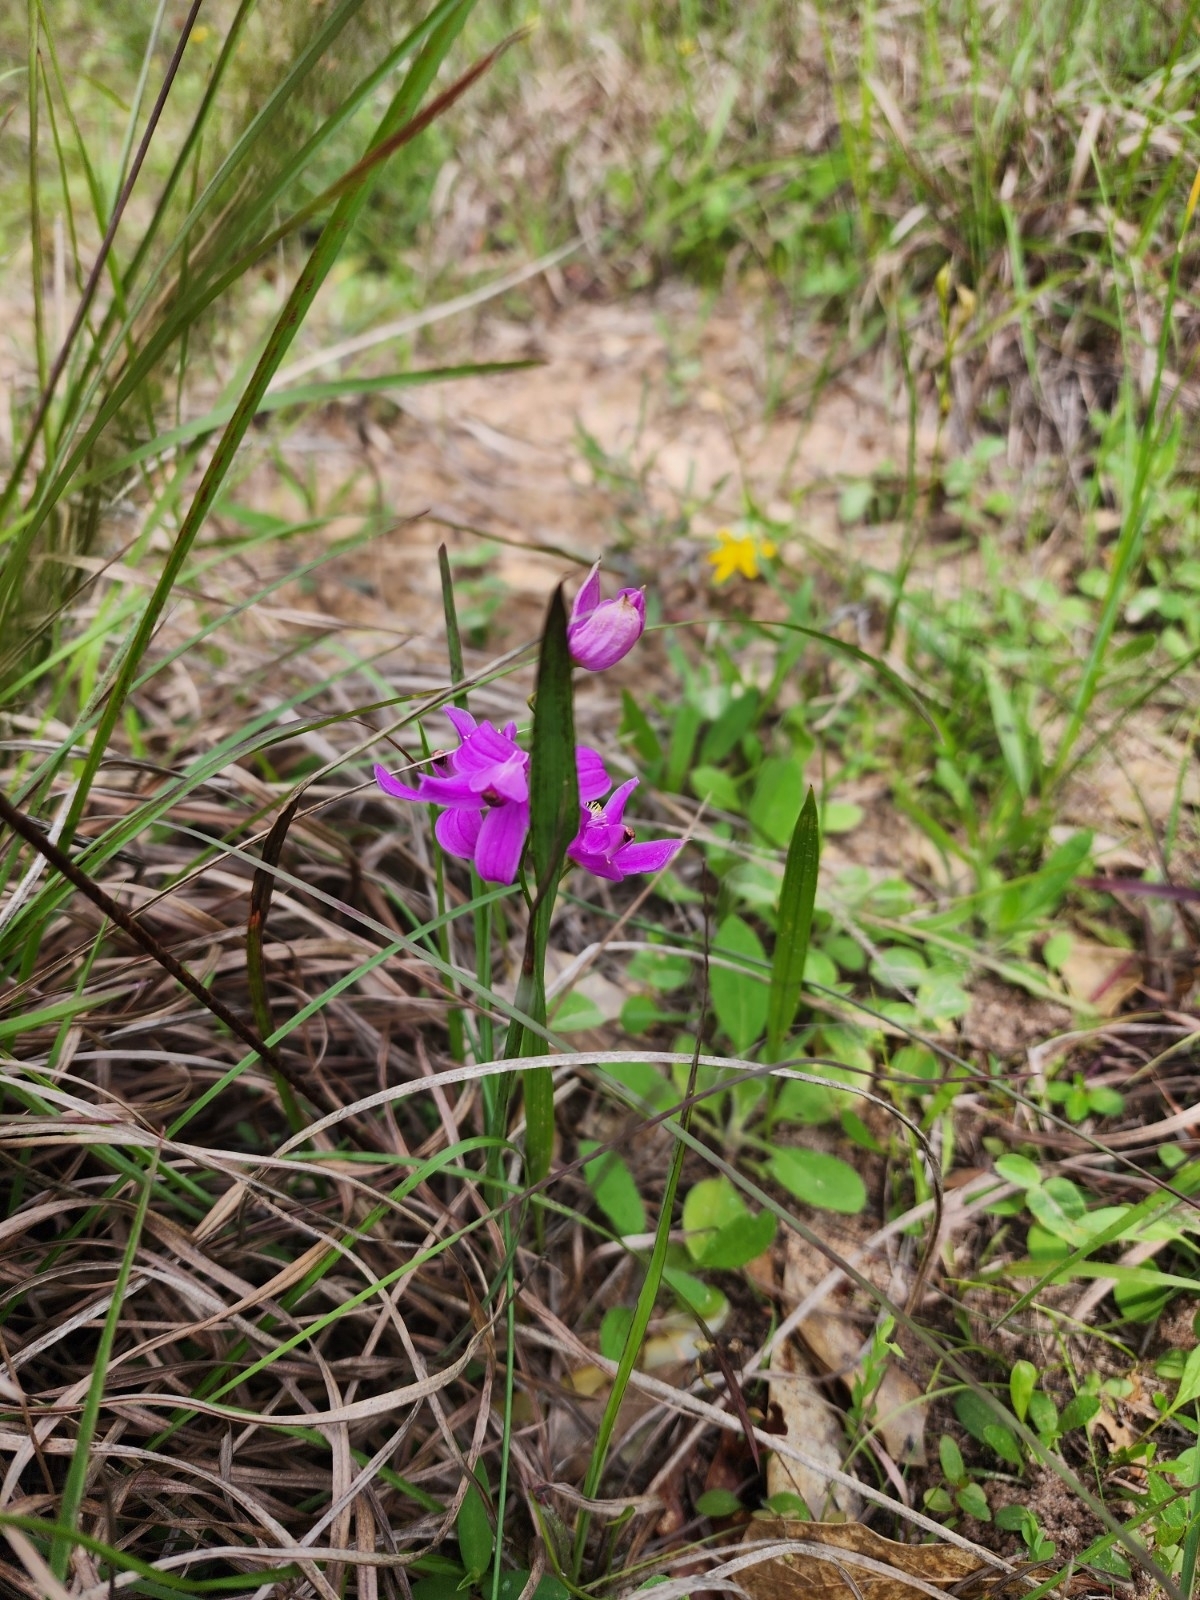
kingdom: Plantae
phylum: Tracheophyta
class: Liliopsida
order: Asparagales
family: Orchidaceae
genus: Calopogon
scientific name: Calopogon oklahomensis
